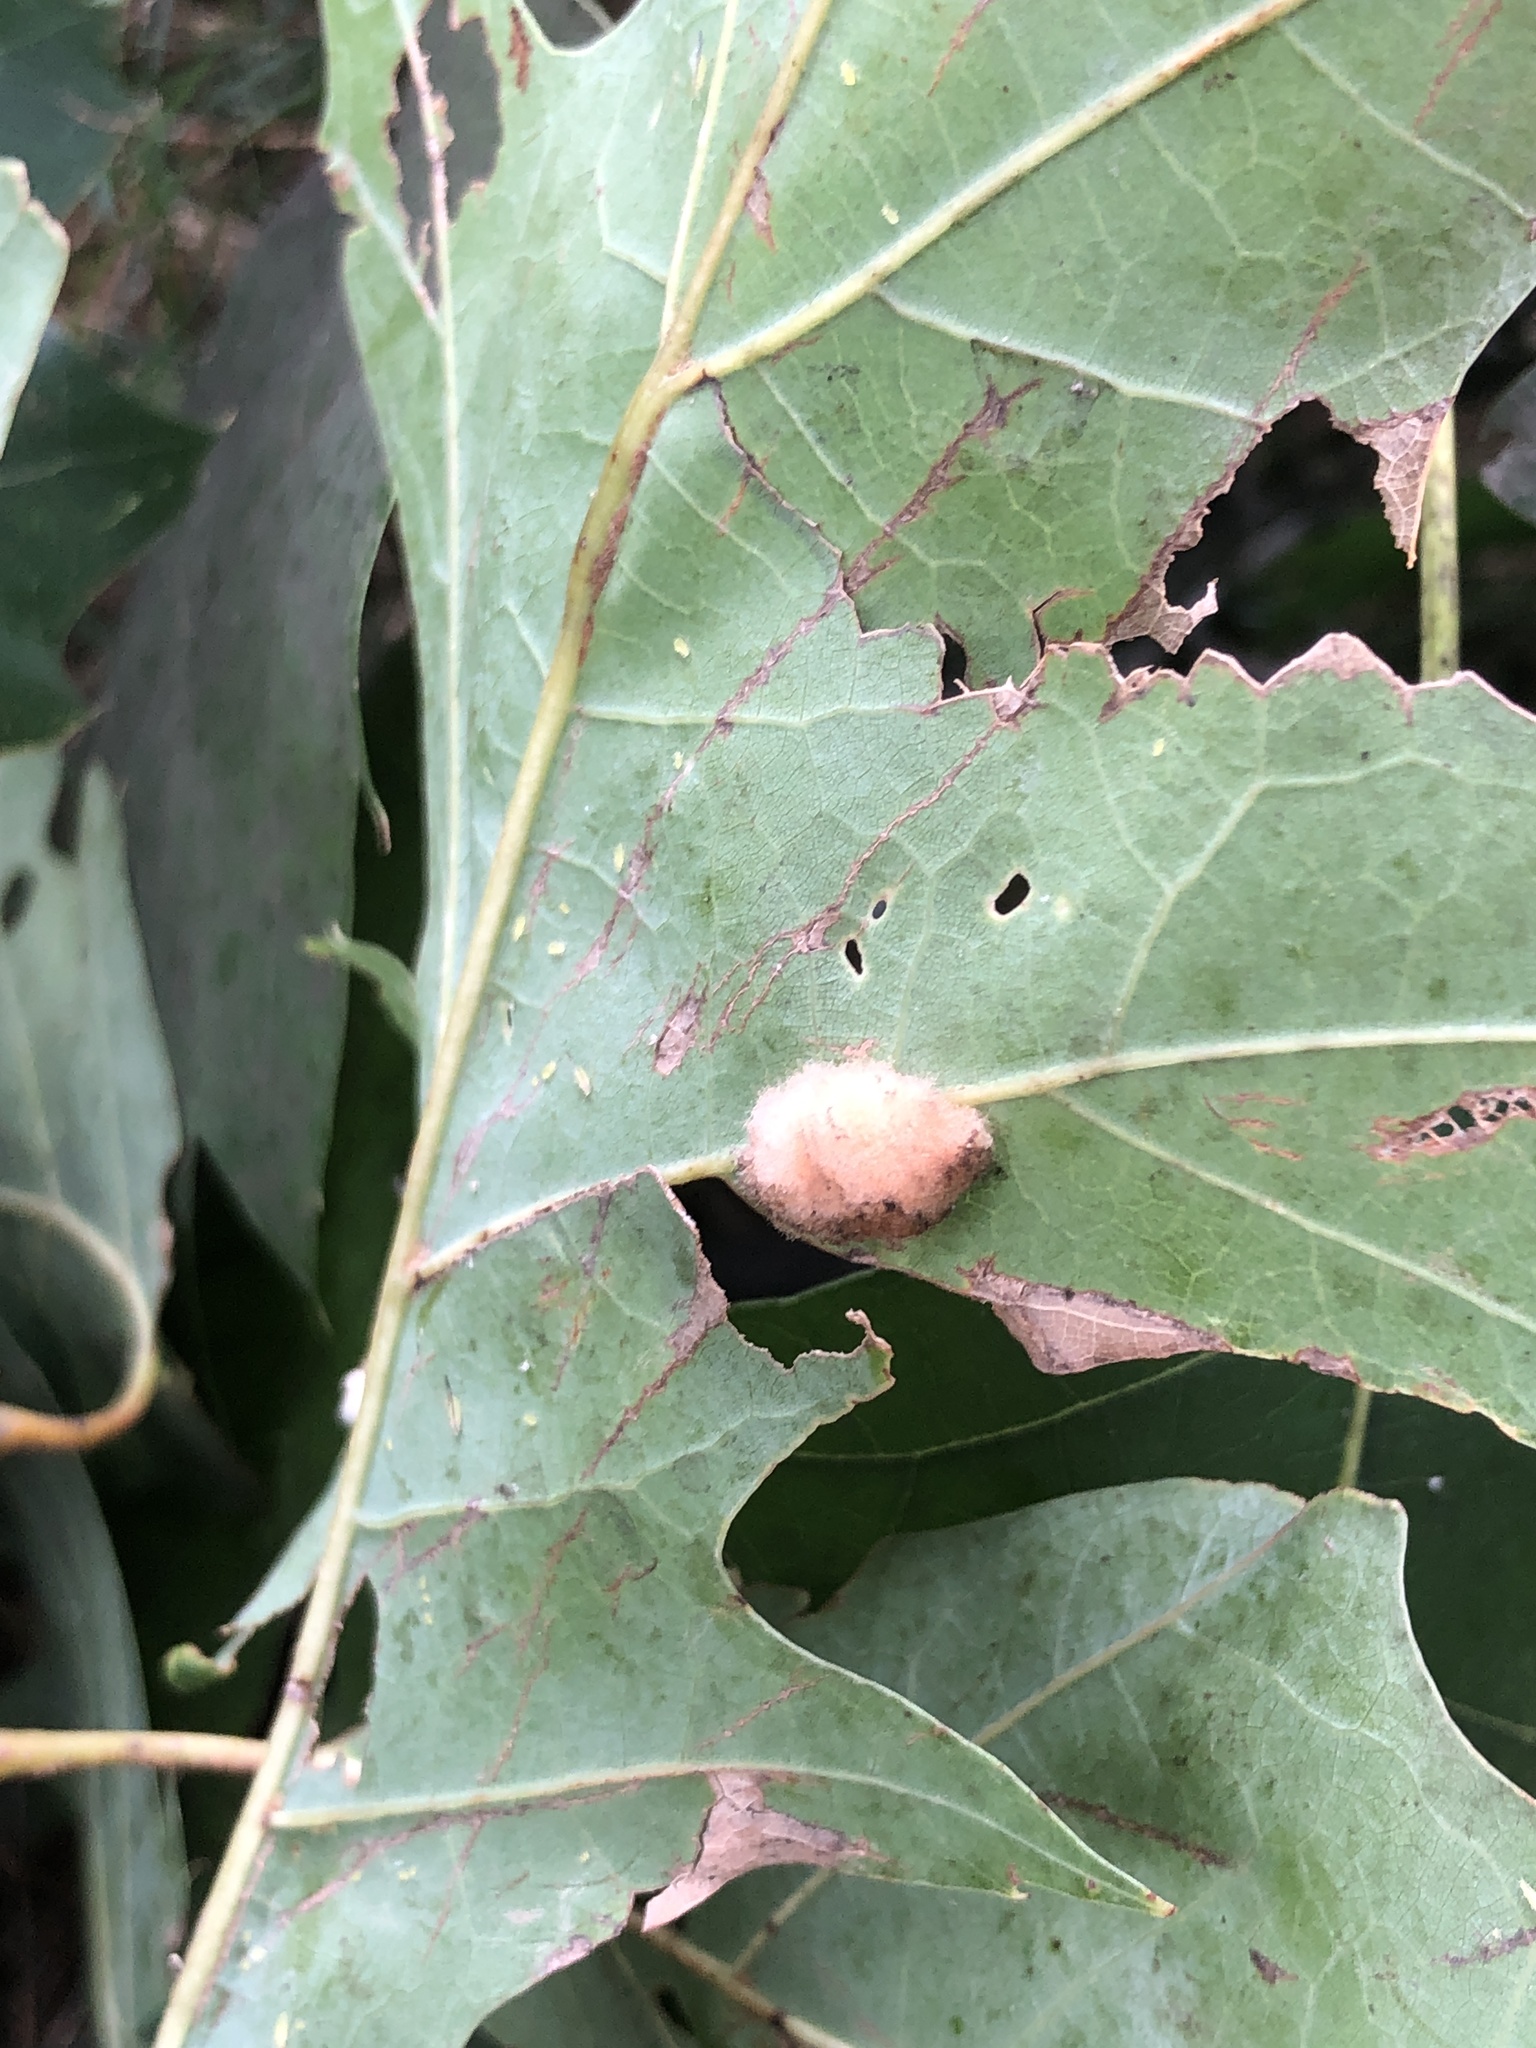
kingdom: Animalia
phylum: Arthropoda
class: Insecta
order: Hymenoptera
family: Cynipidae
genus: Callirhytis
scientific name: Callirhytis
